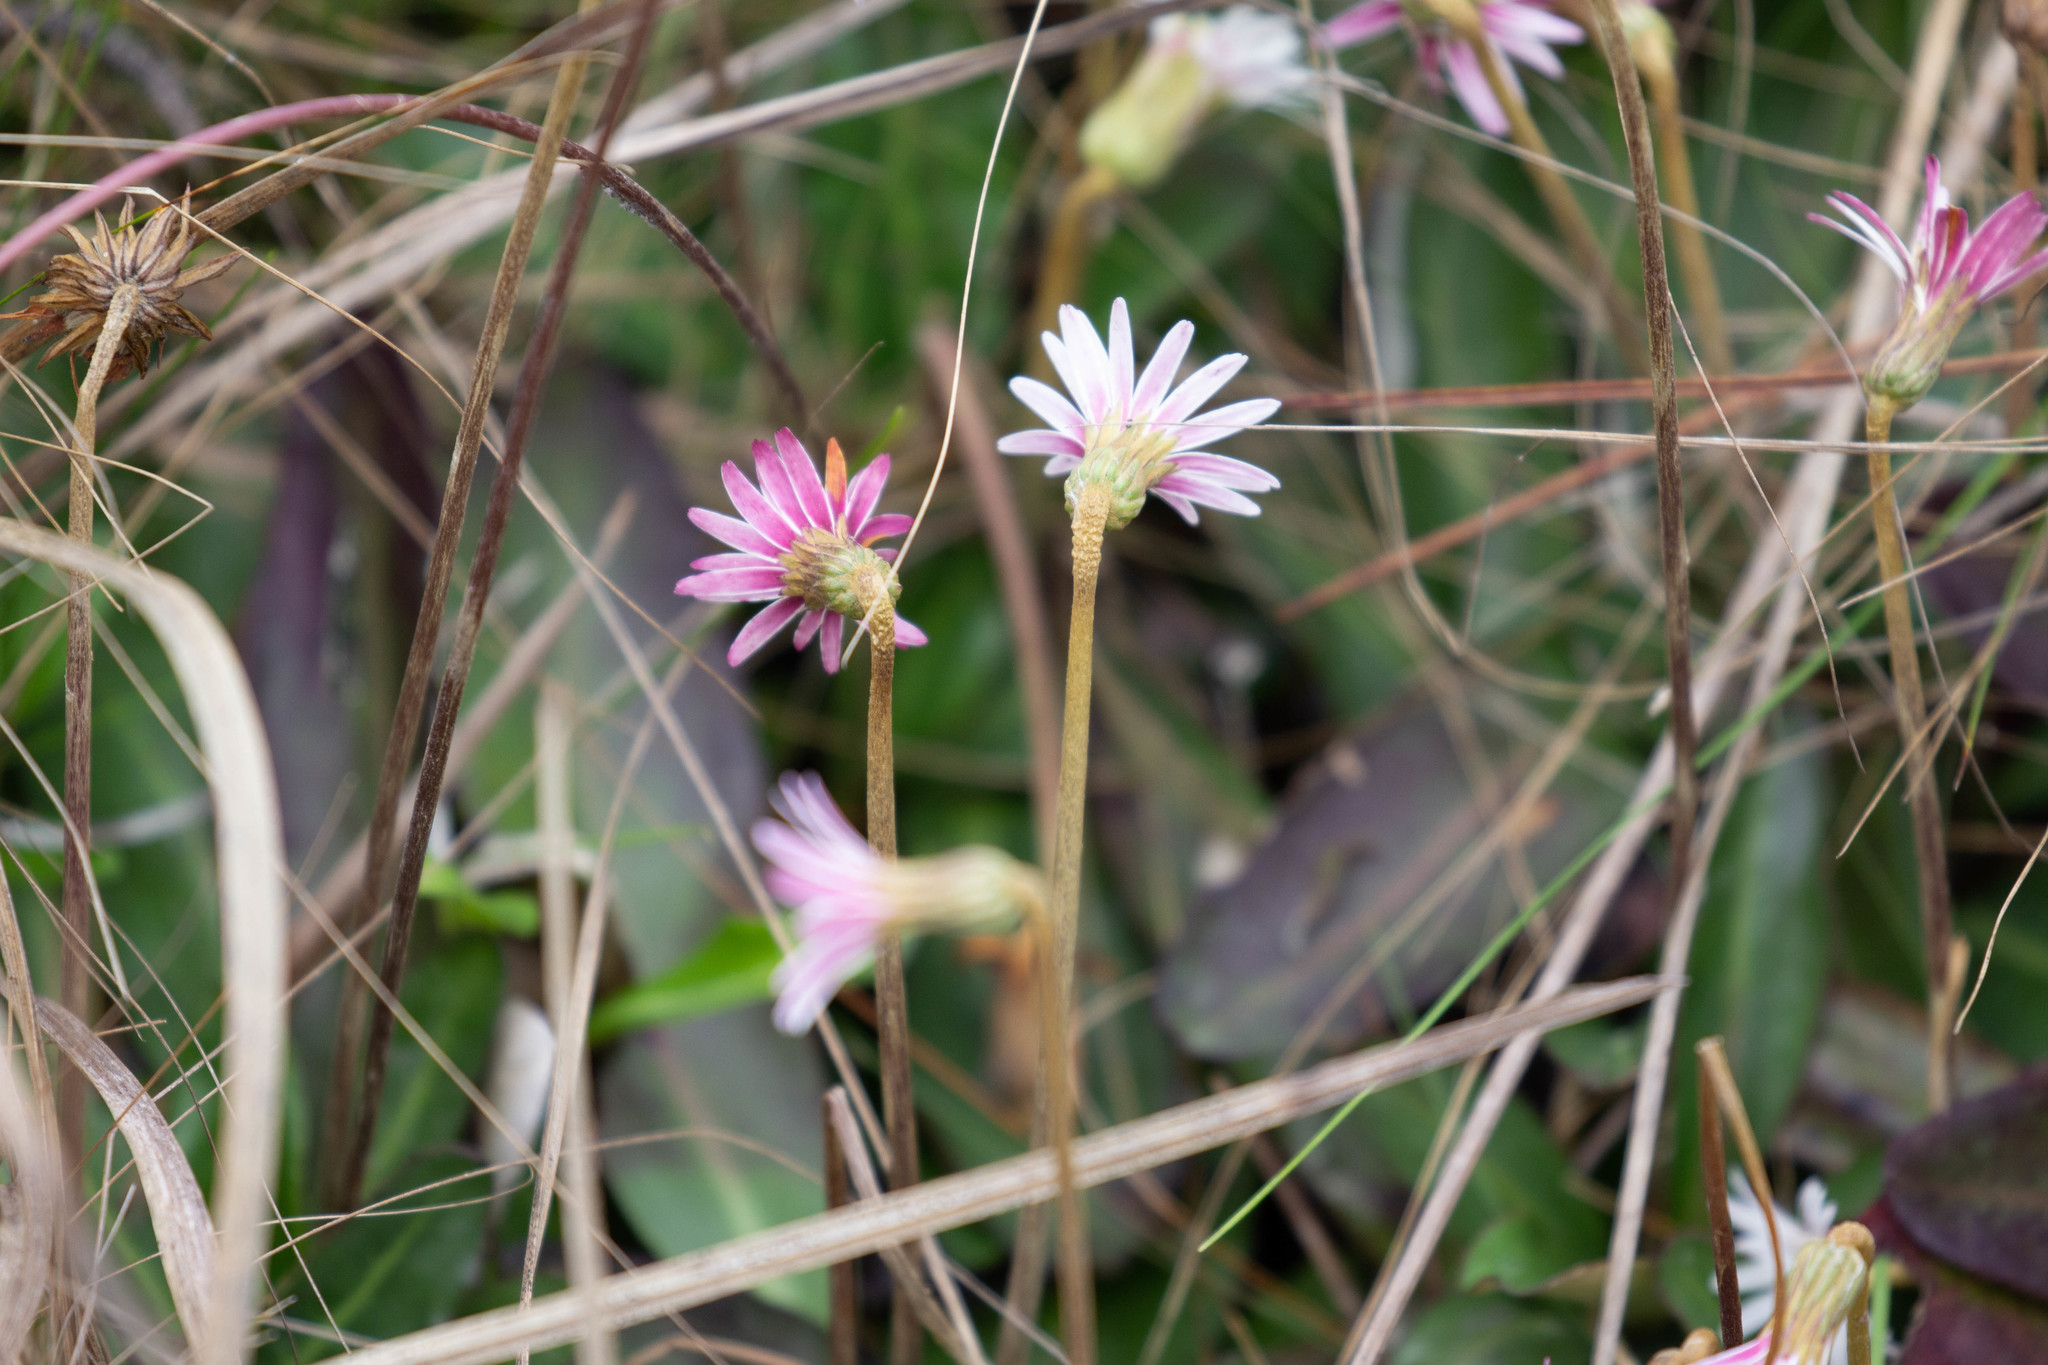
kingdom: Plantae
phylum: Tracheophyta
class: Magnoliopsida
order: Asterales
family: Asteraceae
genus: Chaptalia
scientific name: Chaptalia tomentosa
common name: Woolly sunbonnet
